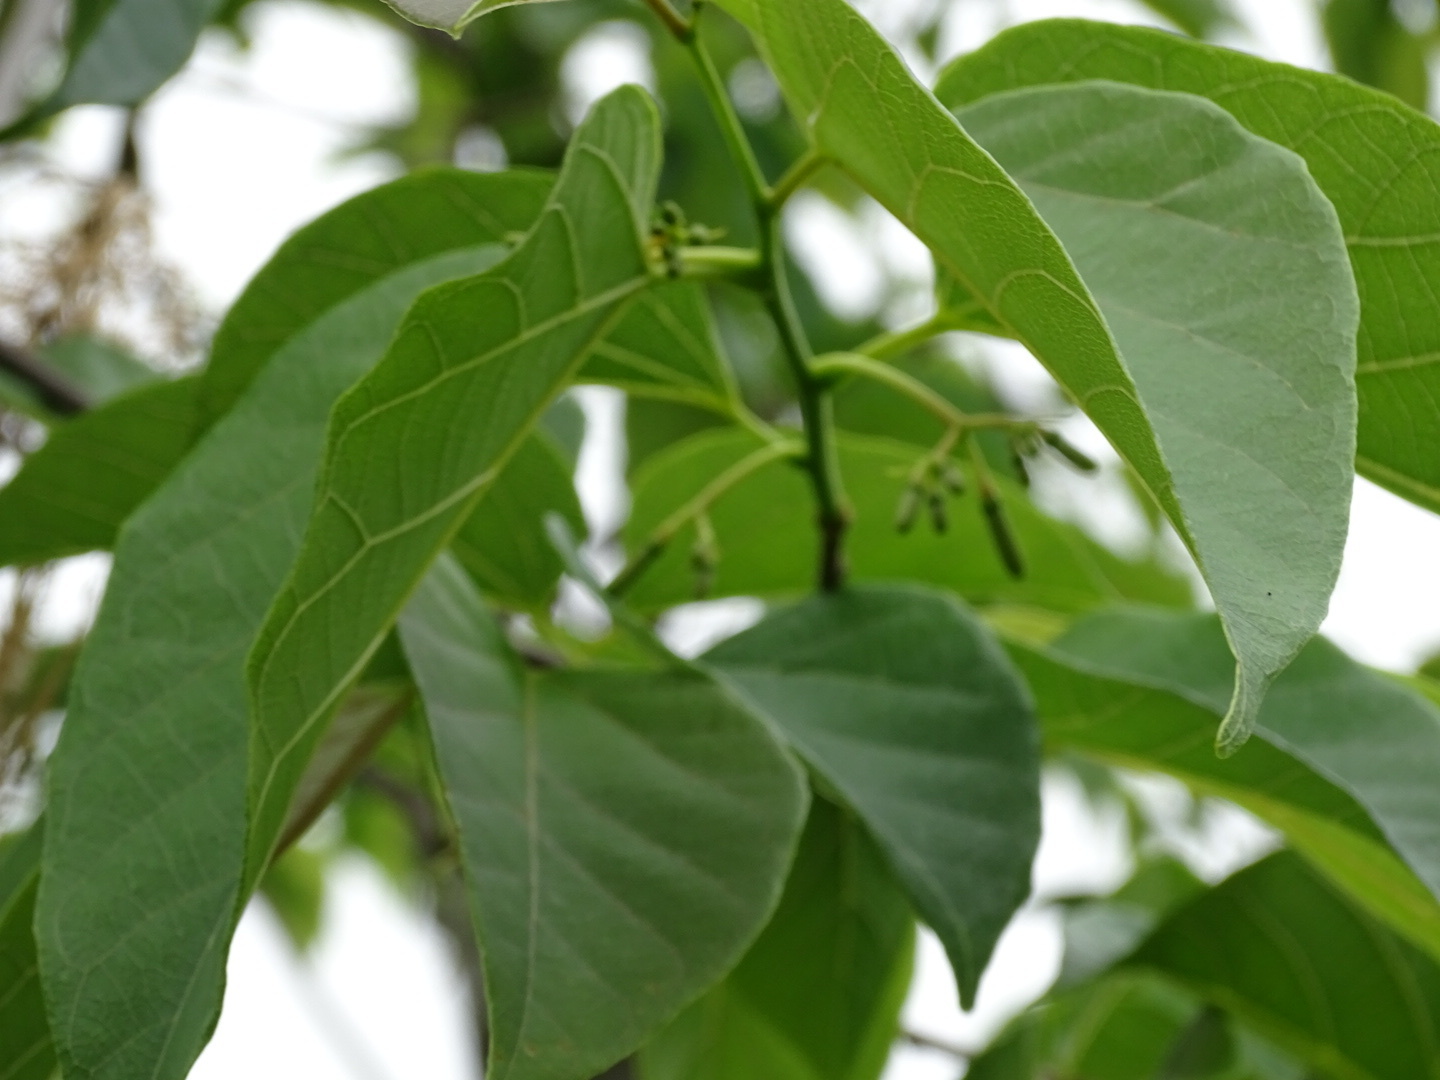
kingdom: Plantae
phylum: Tracheophyta
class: Magnoliopsida
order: Cornales
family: Cornaceae
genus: Alangium
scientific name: Alangium chinense
